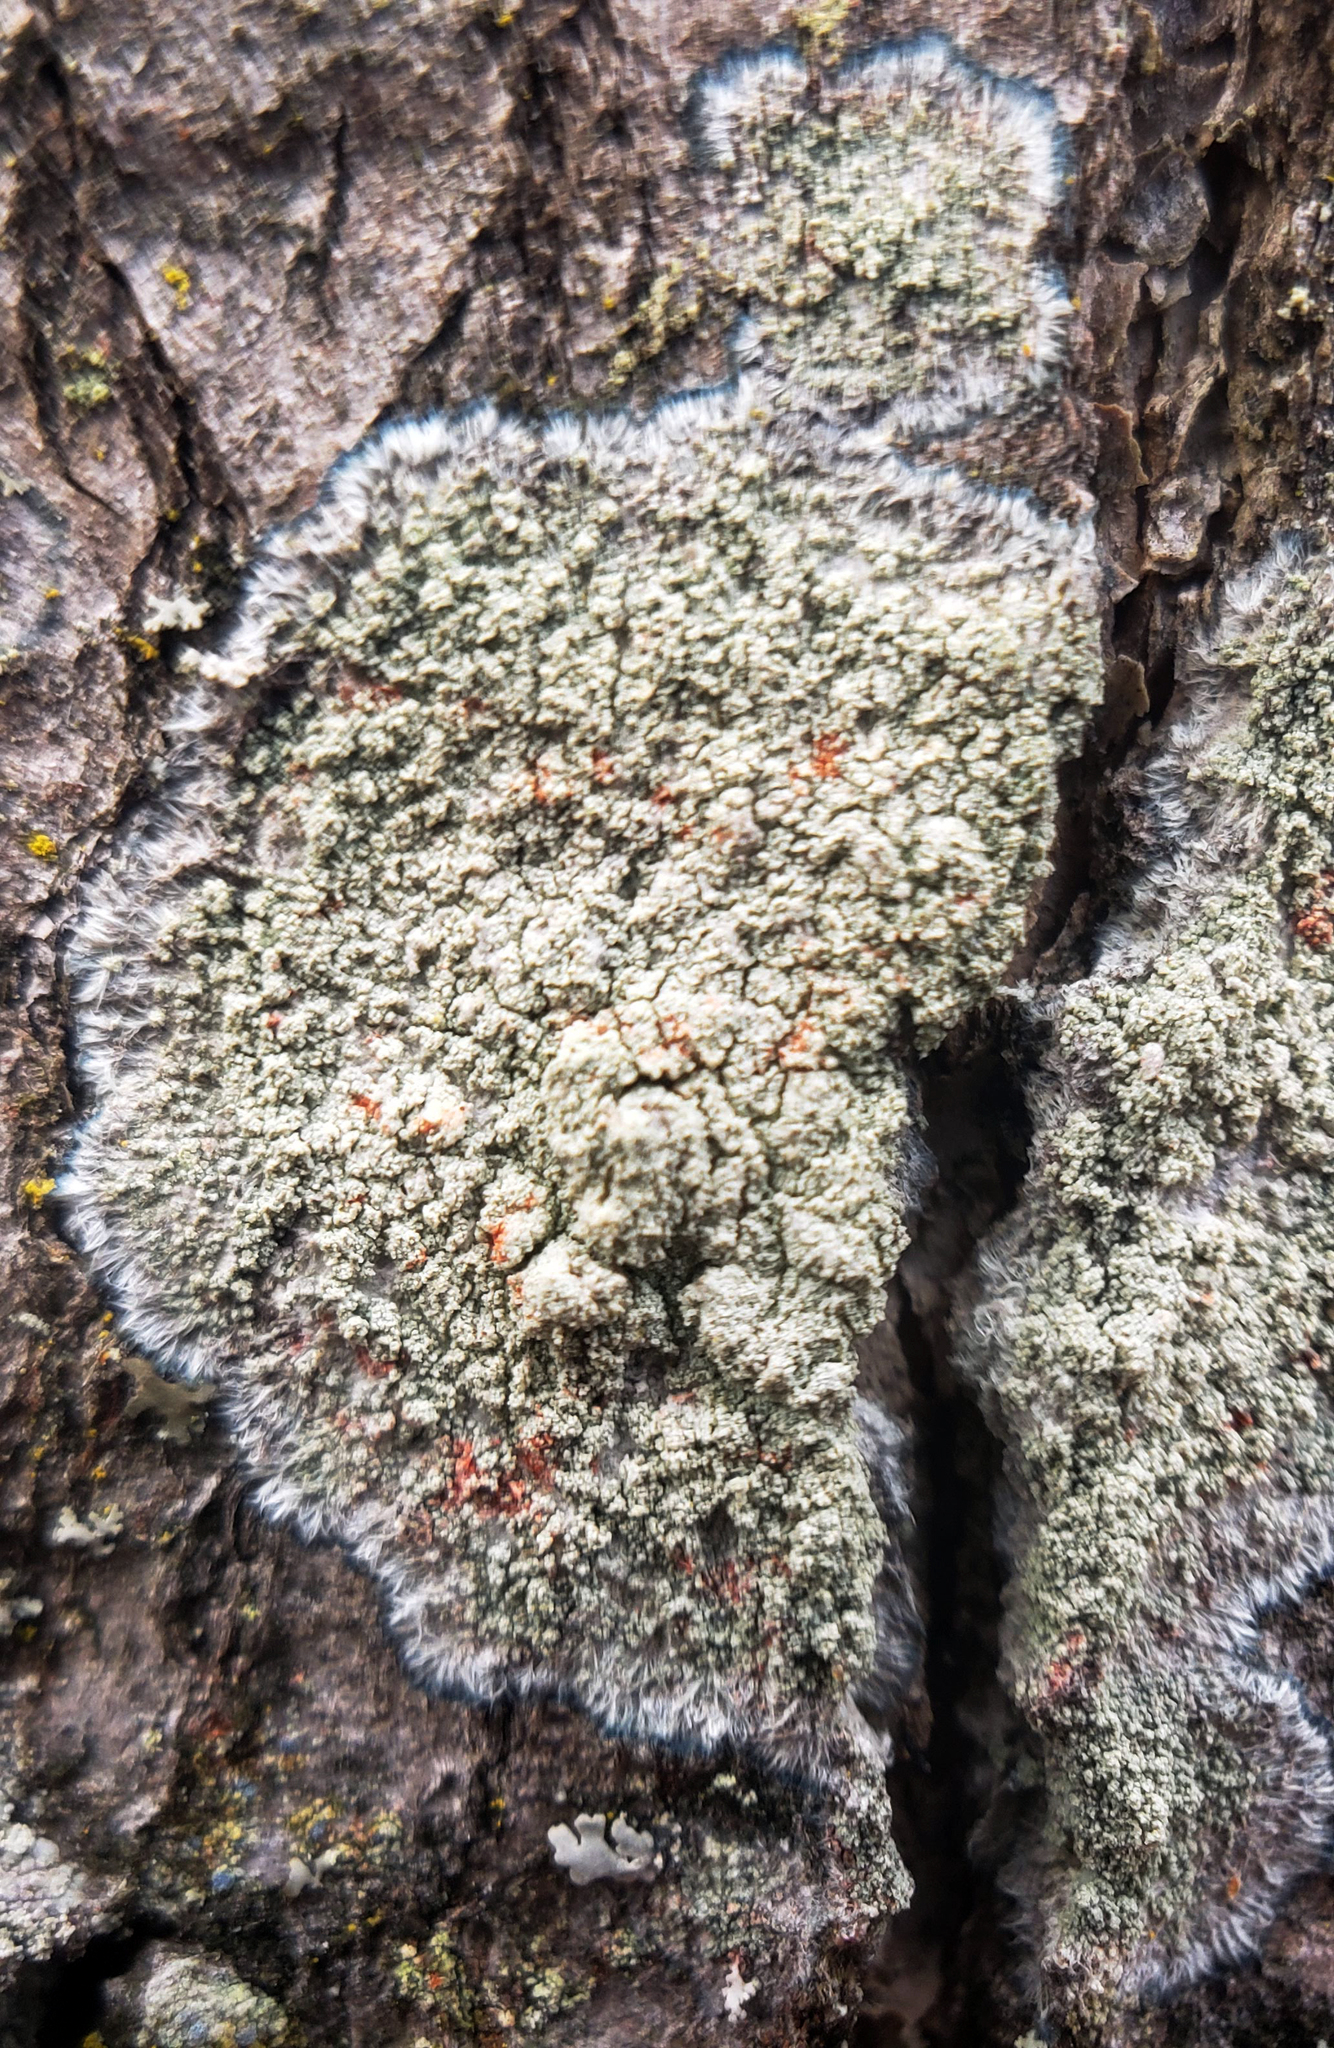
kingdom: Fungi
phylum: Ascomycota
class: Lecanoromycetes
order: Pertusariales
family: Pertusariaceae
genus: Verseghya
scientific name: Verseghya thysanophora
